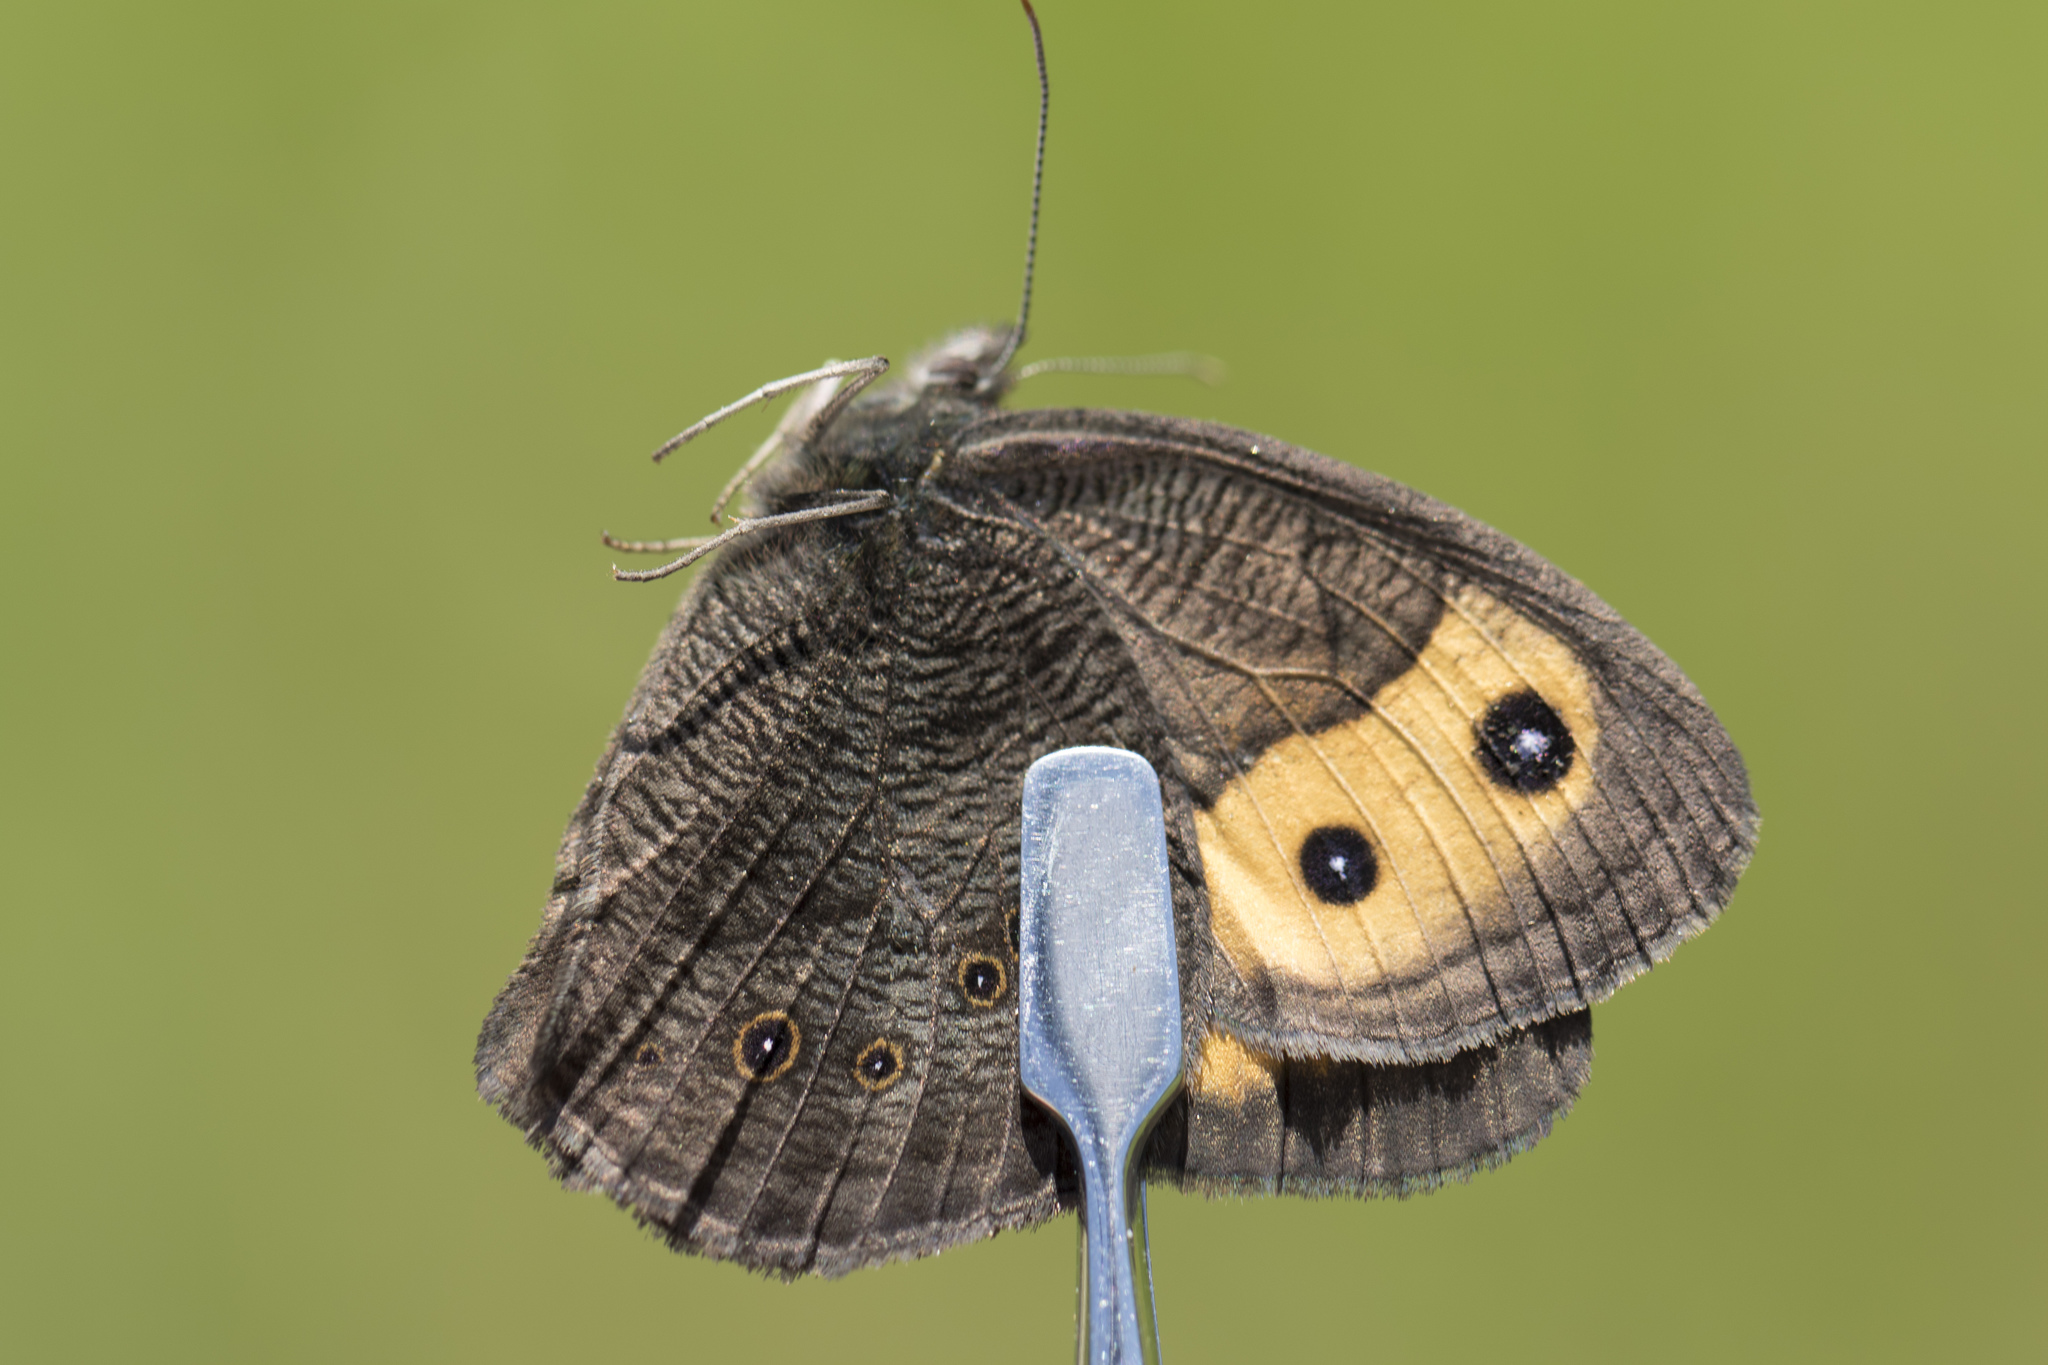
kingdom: Animalia
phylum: Arthropoda
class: Insecta
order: Lepidoptera
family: Nymphalidae
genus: Cercyonis
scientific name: Cercyonis pegala
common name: Common wood-nymph
